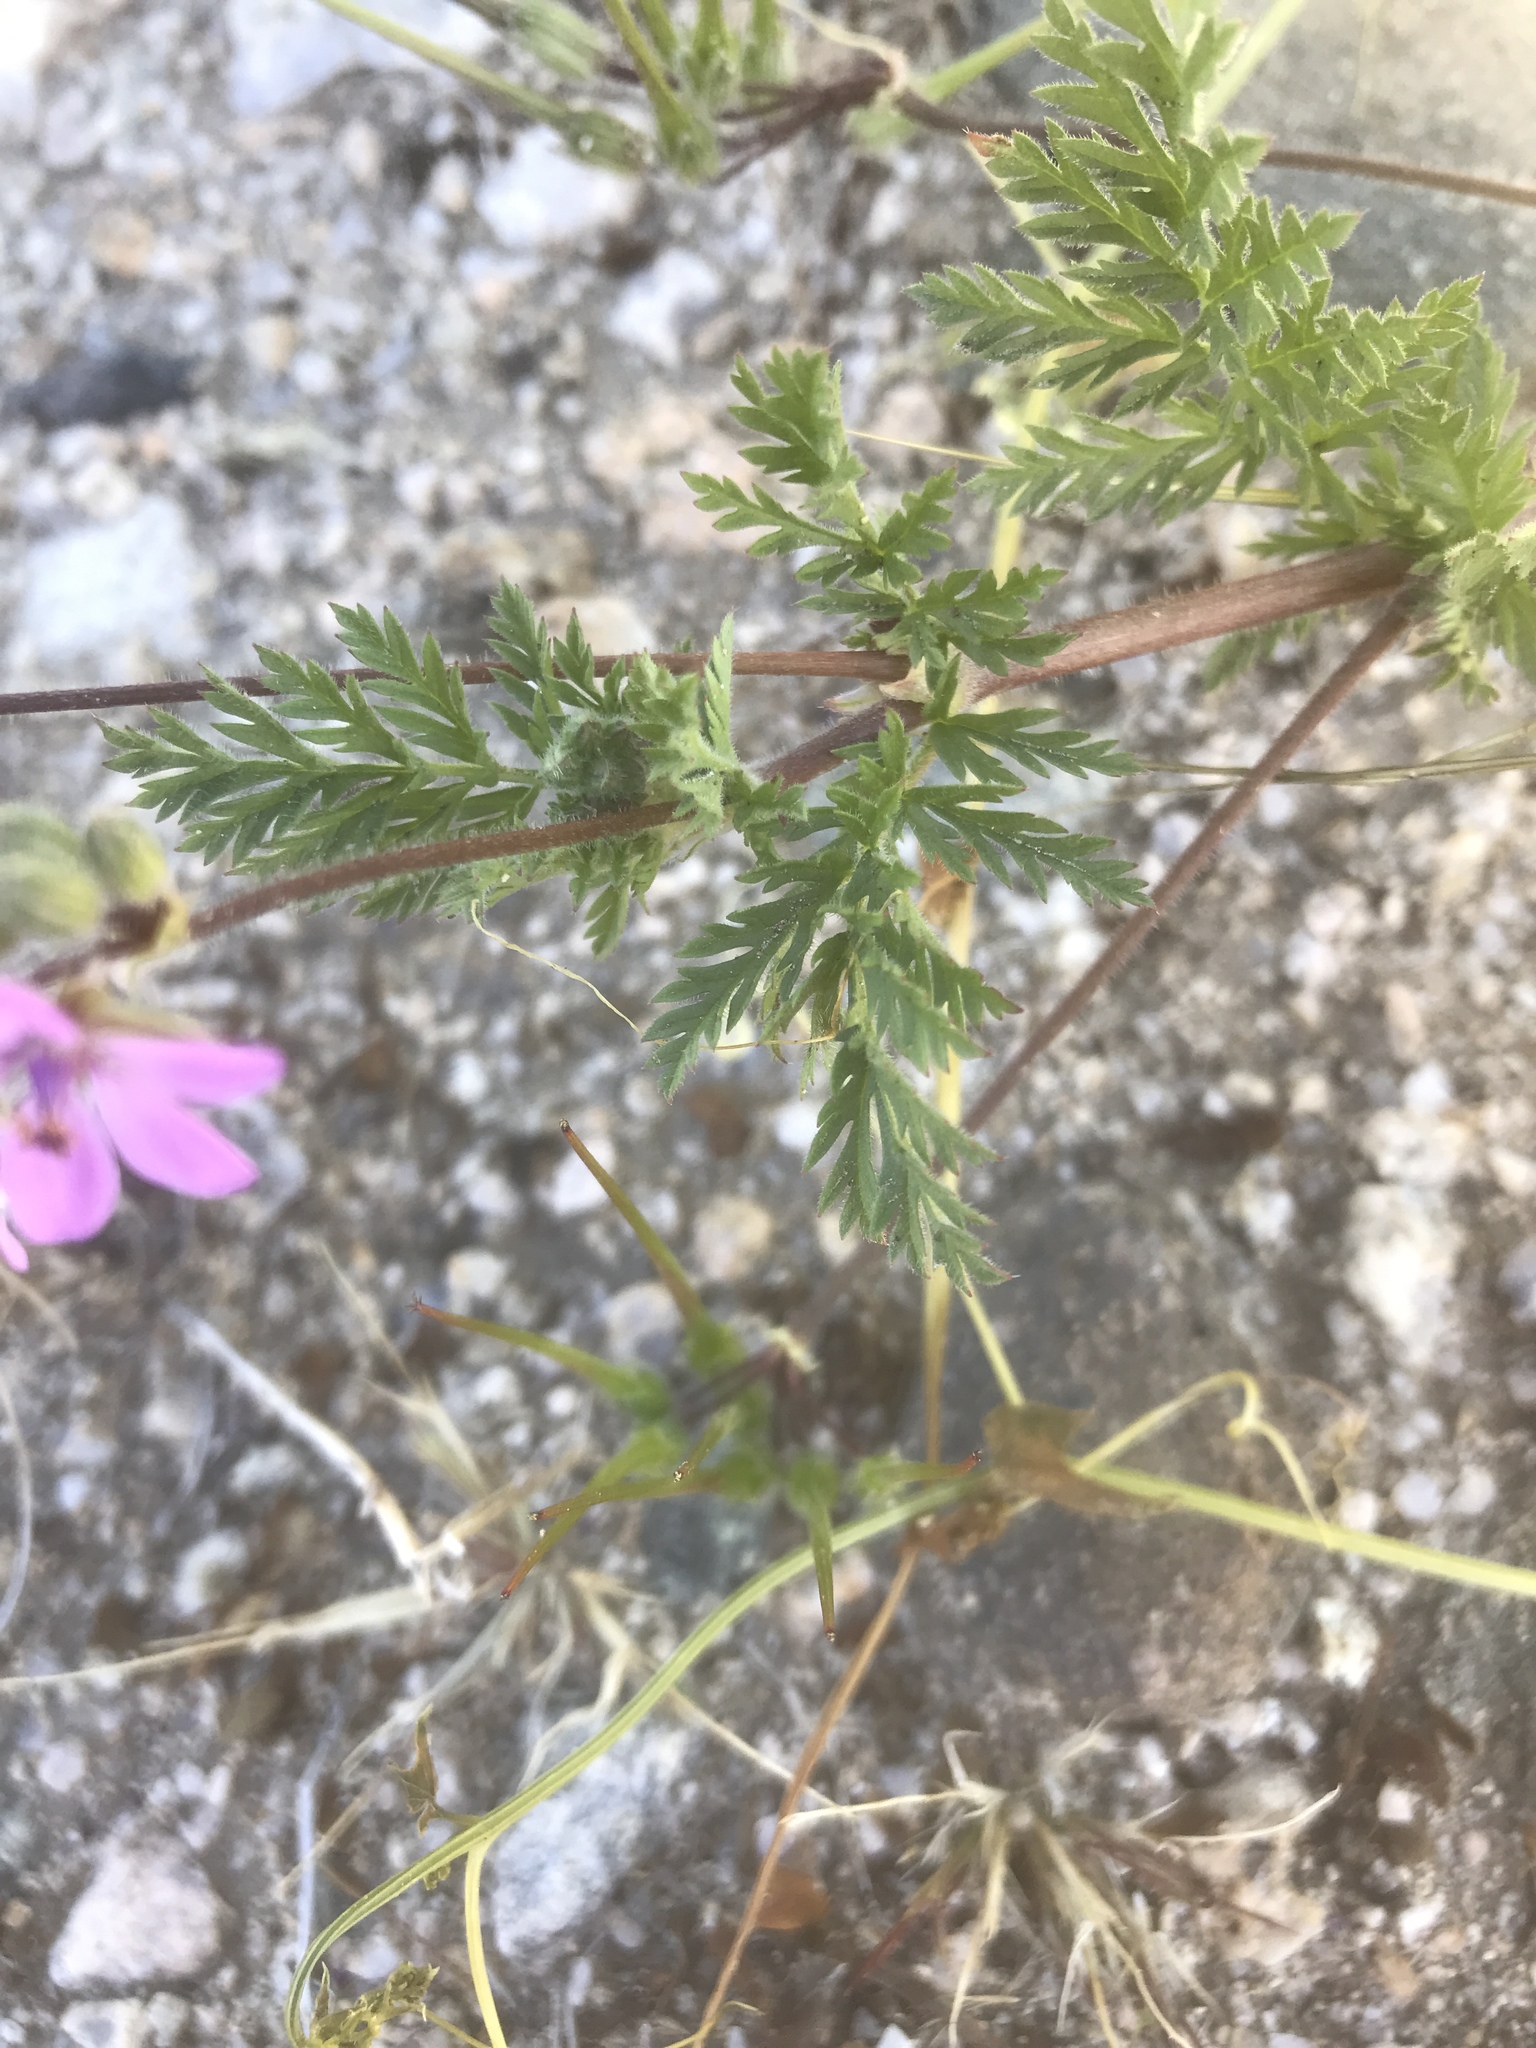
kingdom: Plantae
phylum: Tracheophyta
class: Magnoliopsida
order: Geraniales
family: Geraniaceae
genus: Erodium
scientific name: Erodium cicutarium
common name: Common stork's-bill
